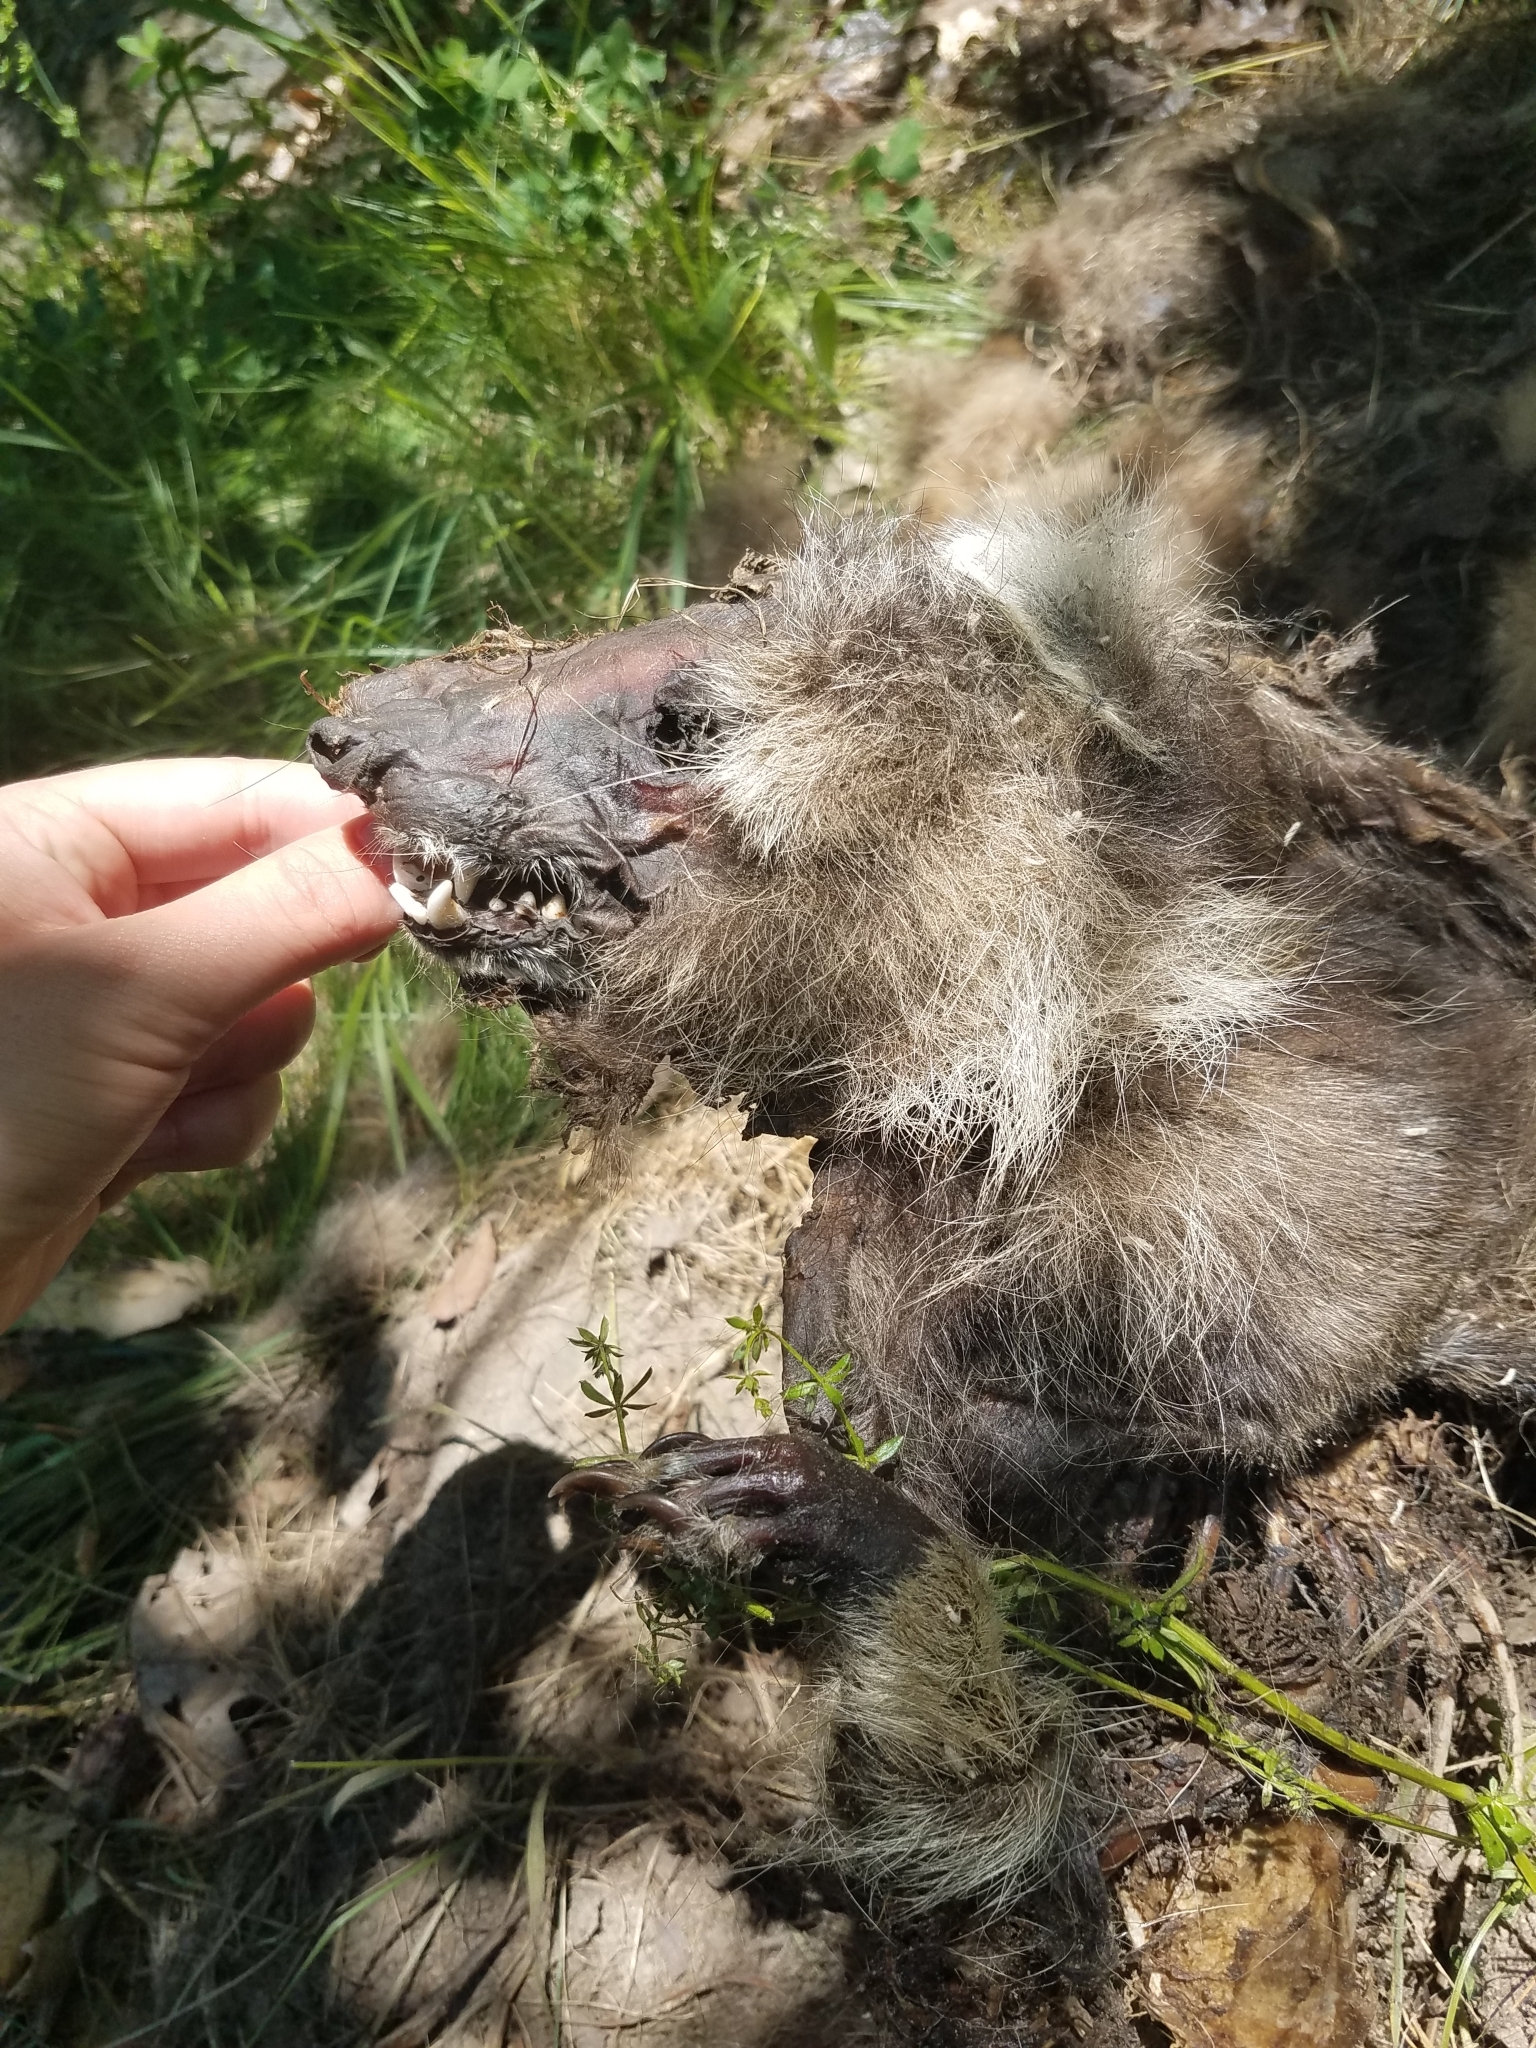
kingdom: Animalia
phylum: Chordata
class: Mammalia
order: Carnivora
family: Procyonidae
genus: Procyon
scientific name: Procyon lotor
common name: Raccoon
